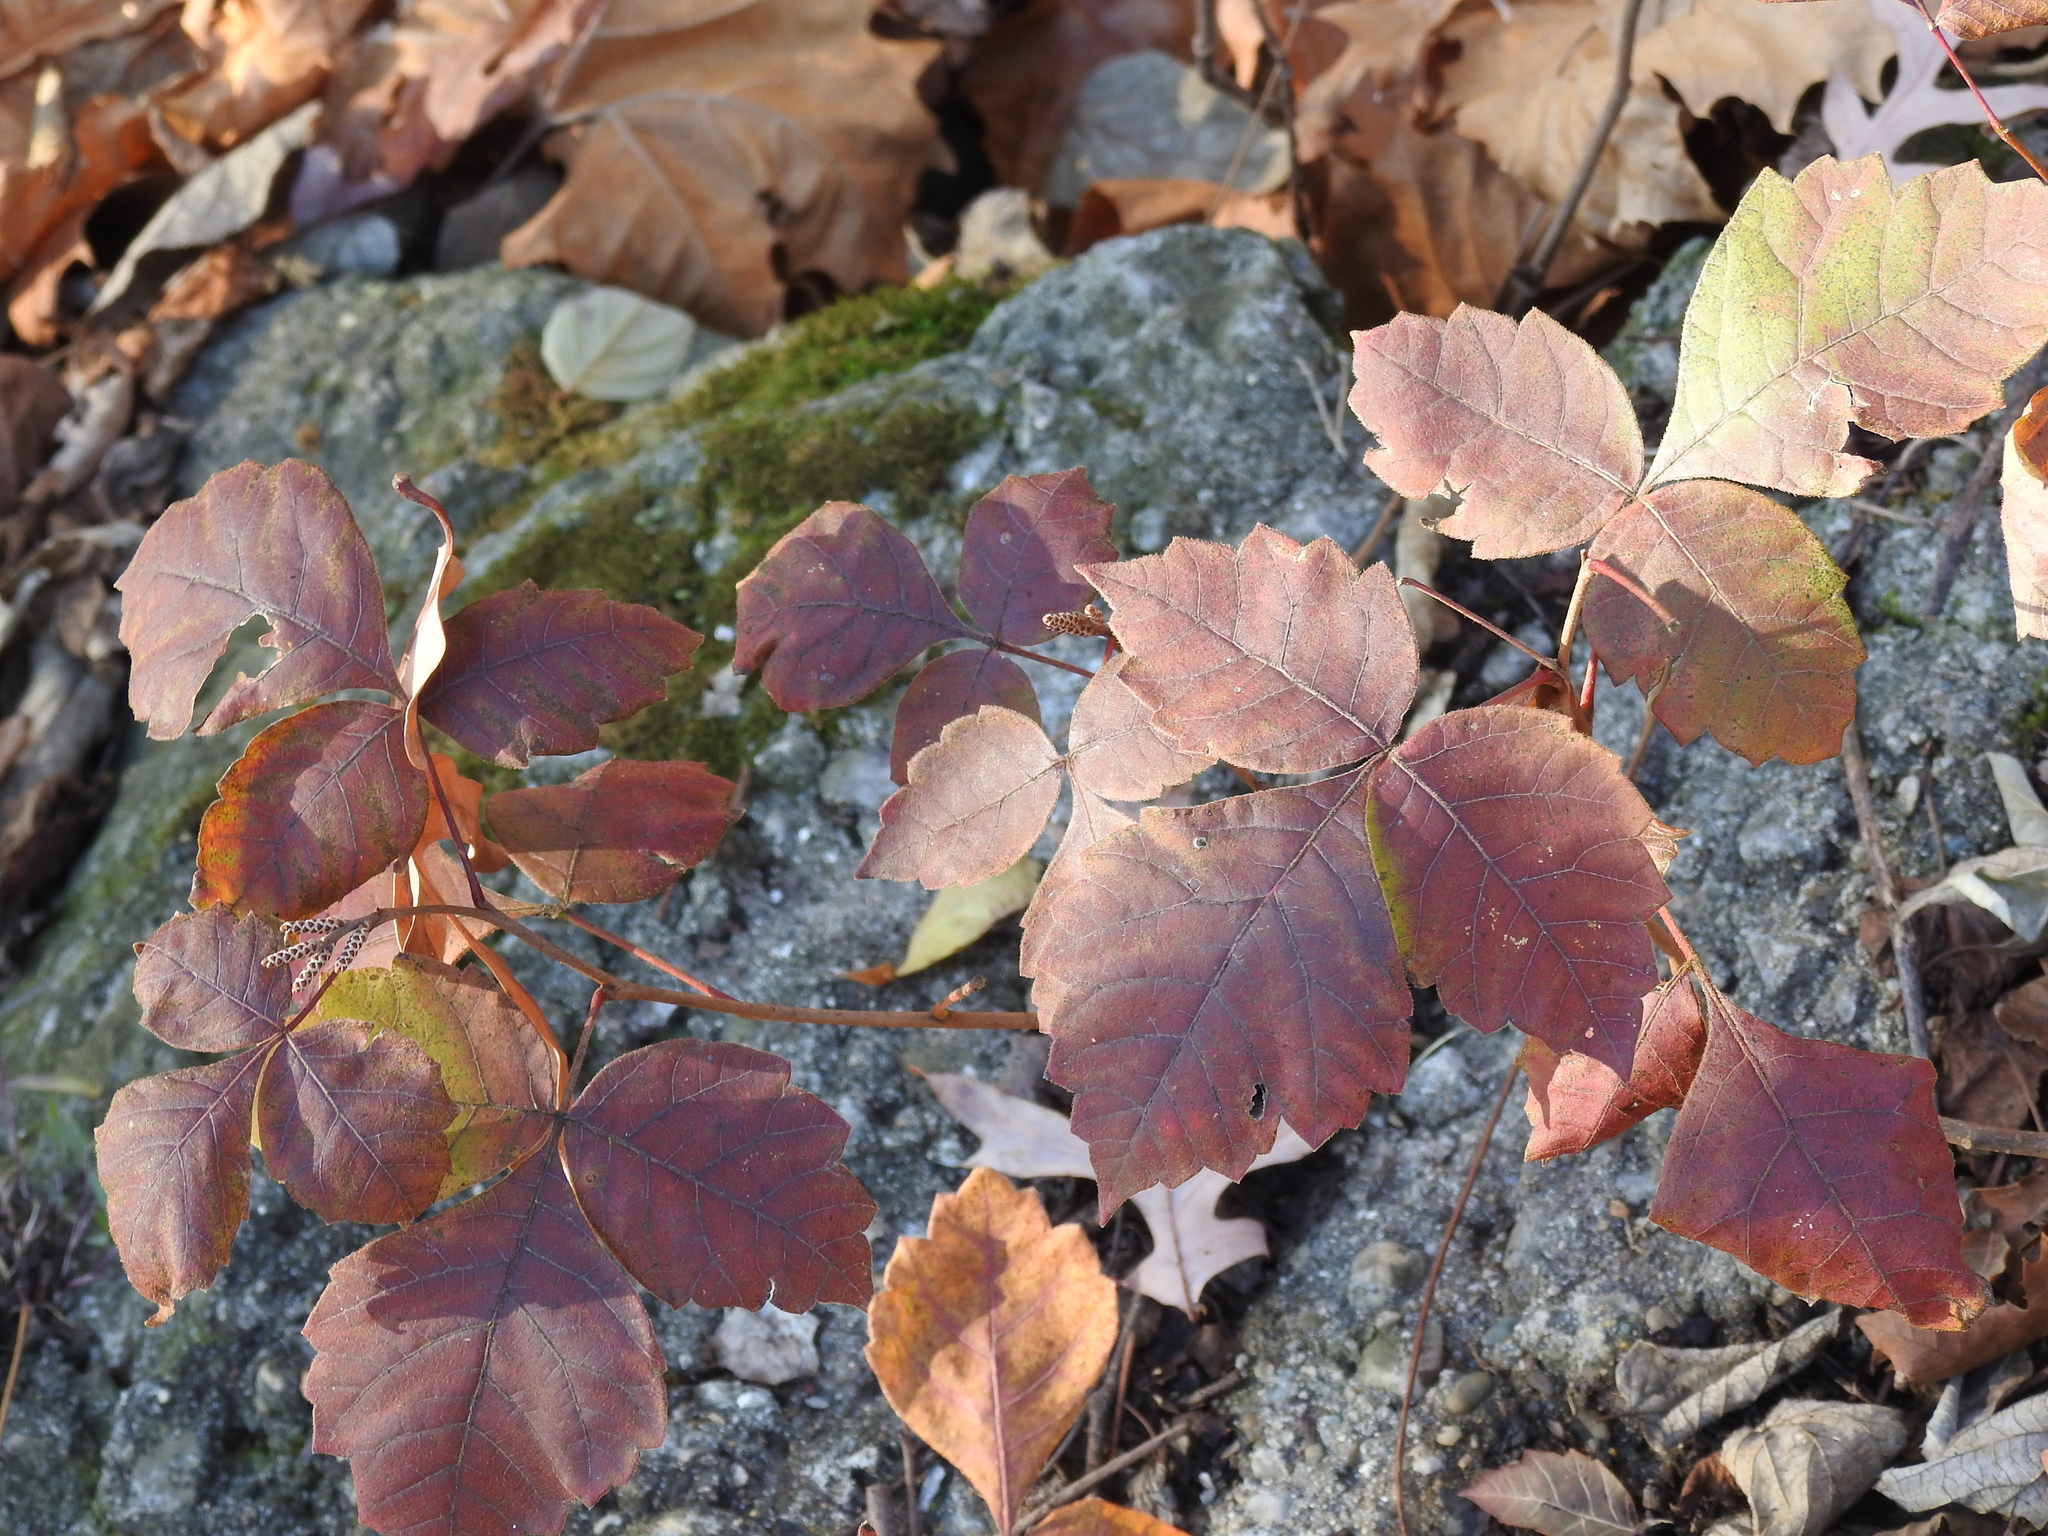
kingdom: Plantae
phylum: Tracheophyta
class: Magnoliopsida
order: Sapindales
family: Anacardiaceae
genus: Toxicodendron
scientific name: Toxicodendron radicans
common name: Poison ivy
